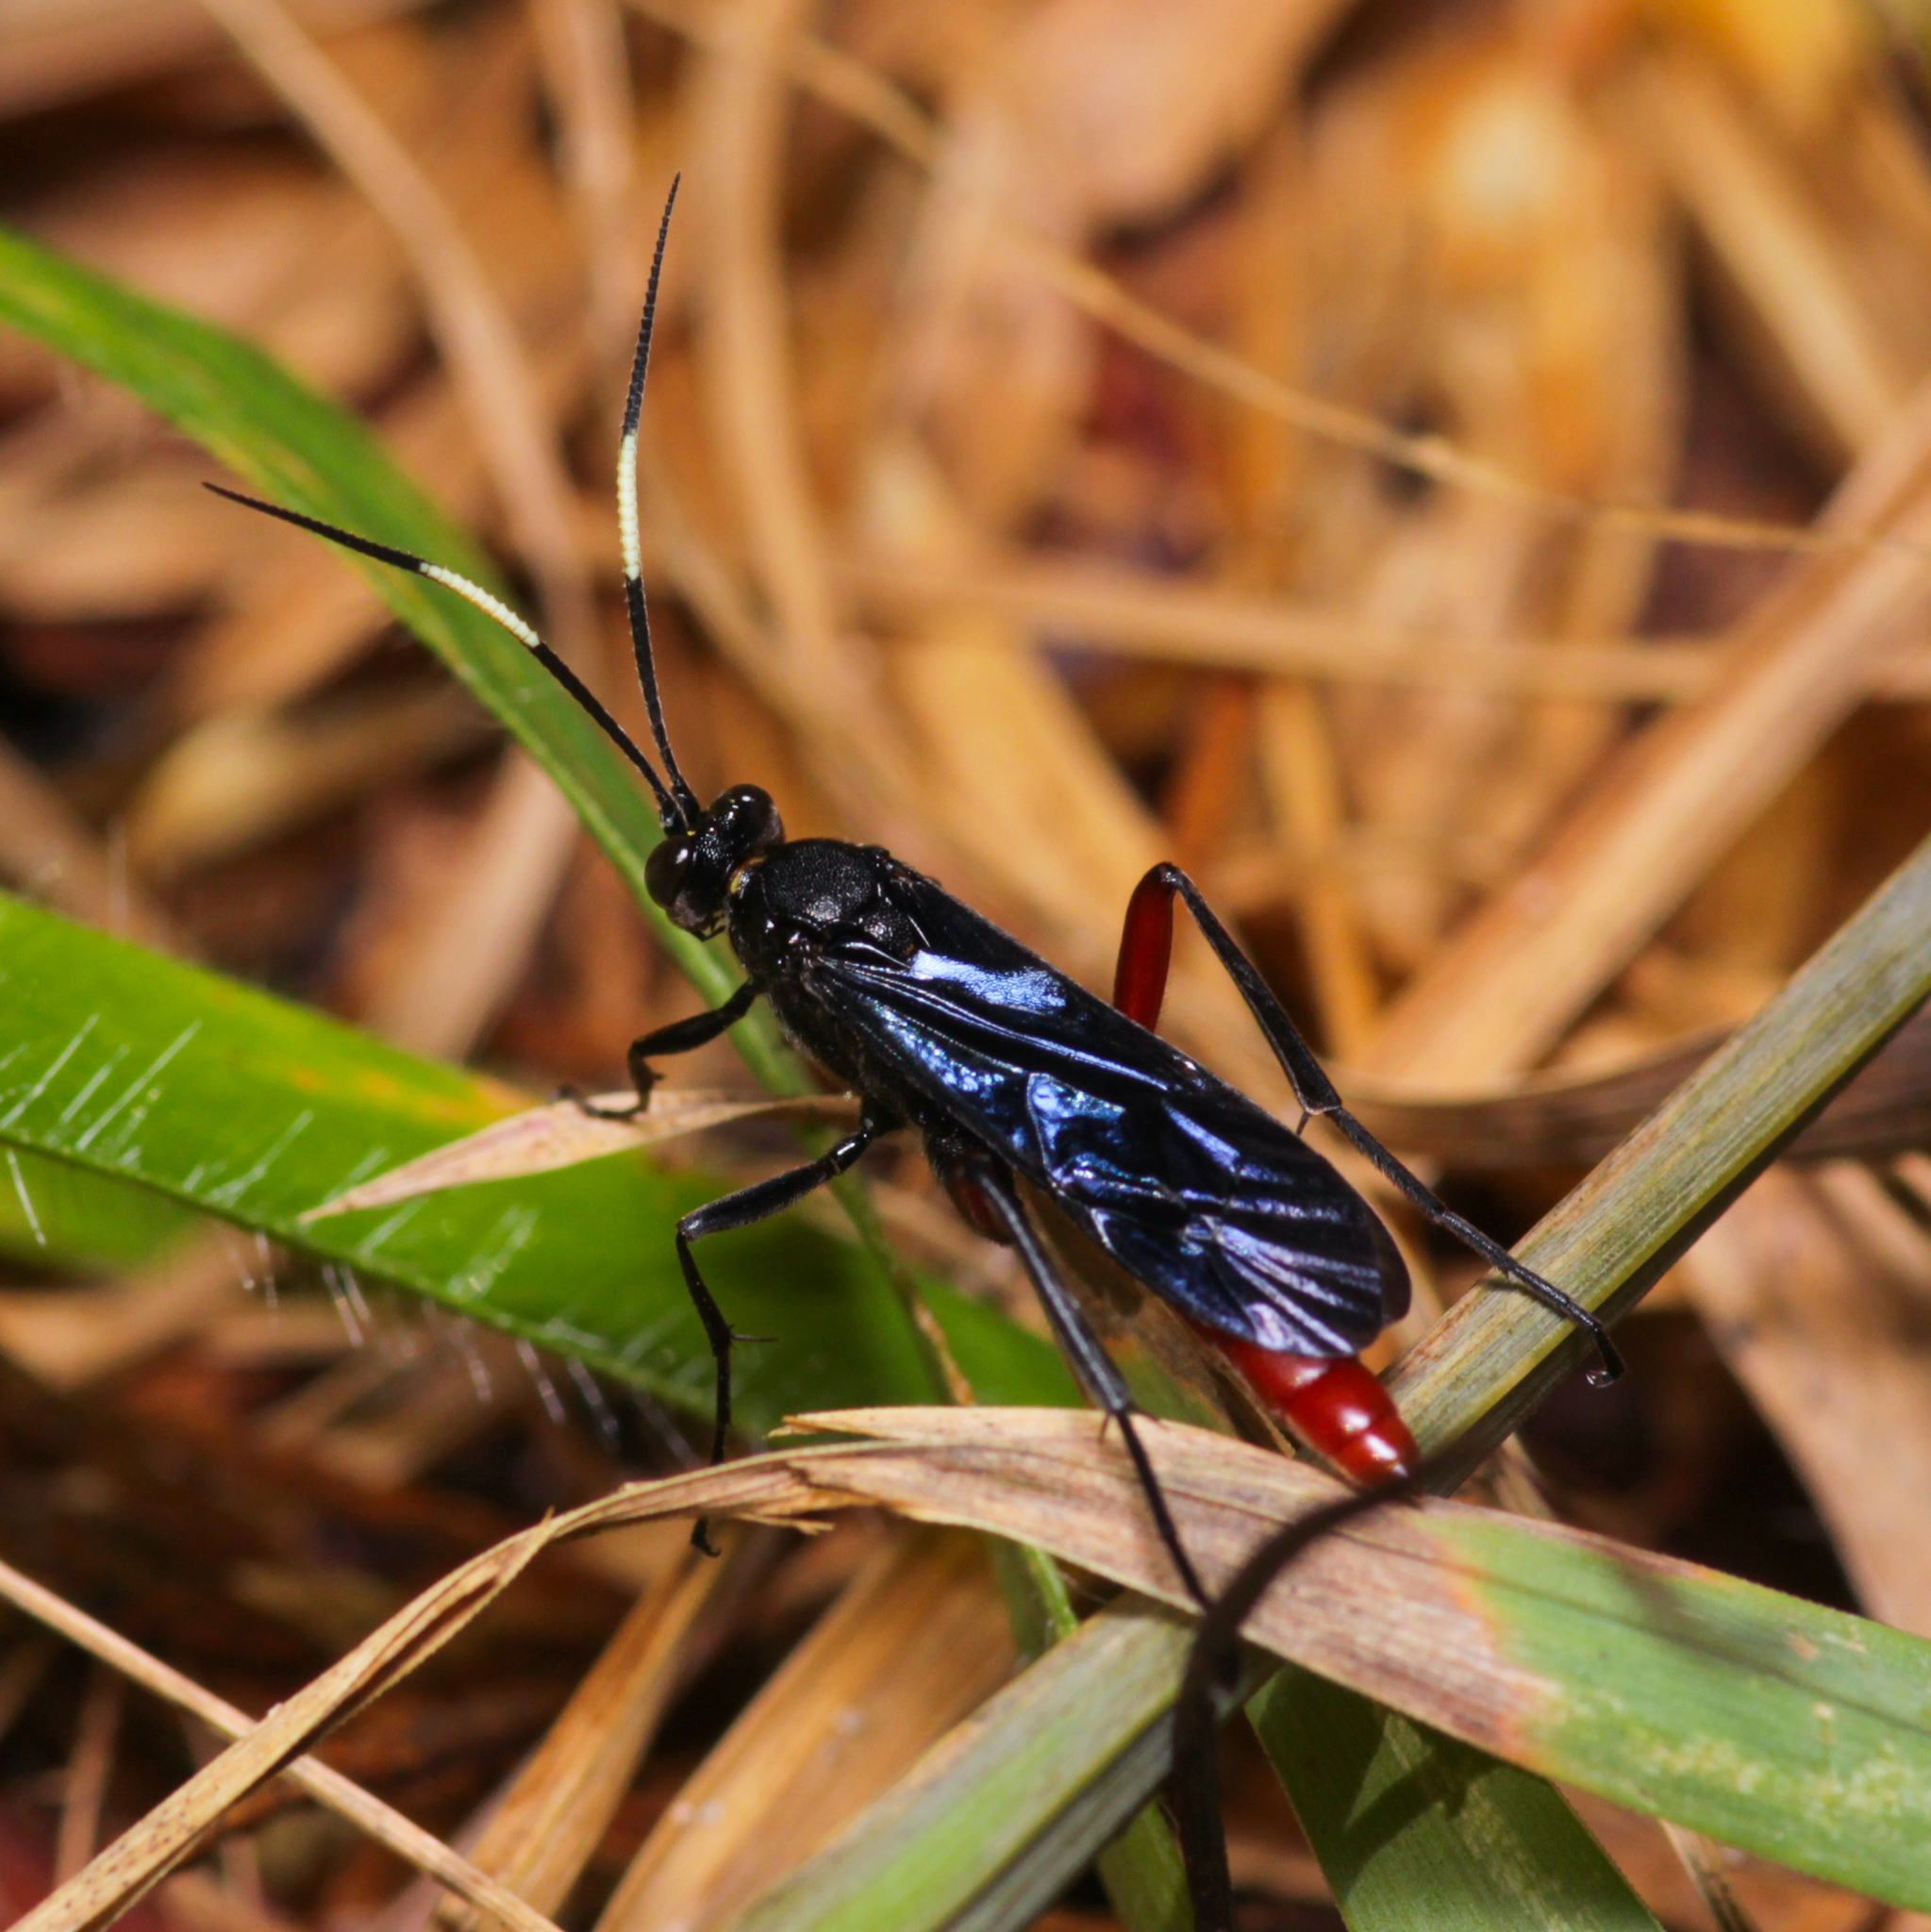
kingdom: Animalia
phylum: Arthropoda
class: Insecta
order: Hymenoptera
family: Ichneumonidae
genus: Limonethe
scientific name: Limonethe maurator
